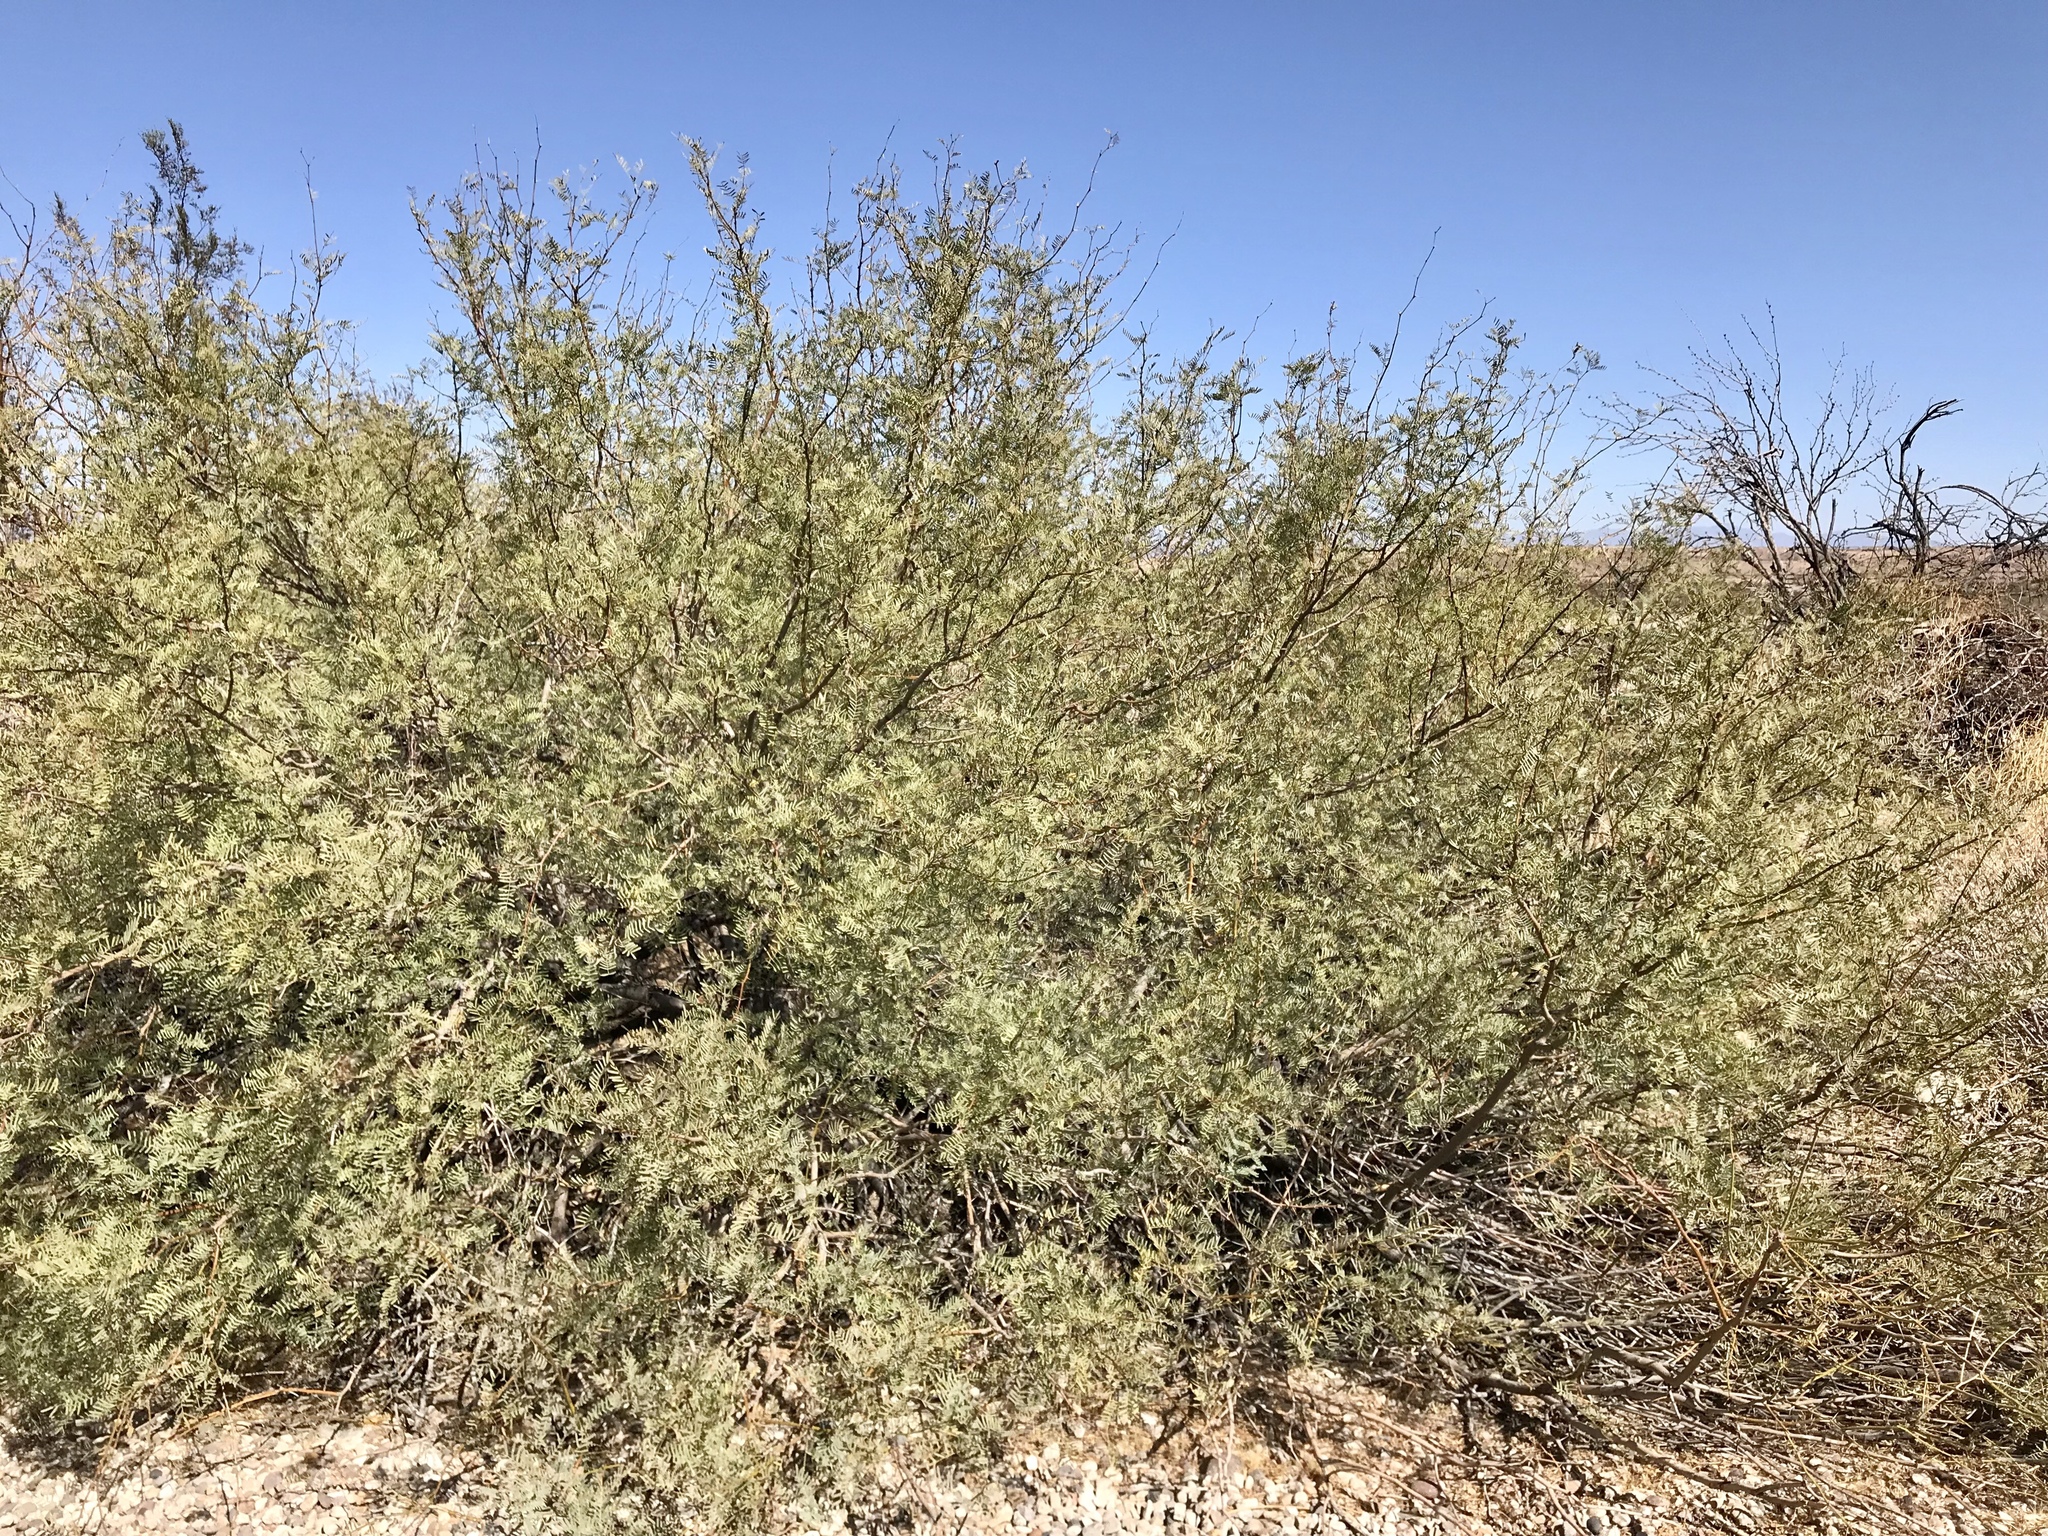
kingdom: Plantae
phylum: Tracheophyta
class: Magnoliopsida
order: Fabales
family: Fabaceae
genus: Prosopis
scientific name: Prosopis glandulosa
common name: Honey mesquite
